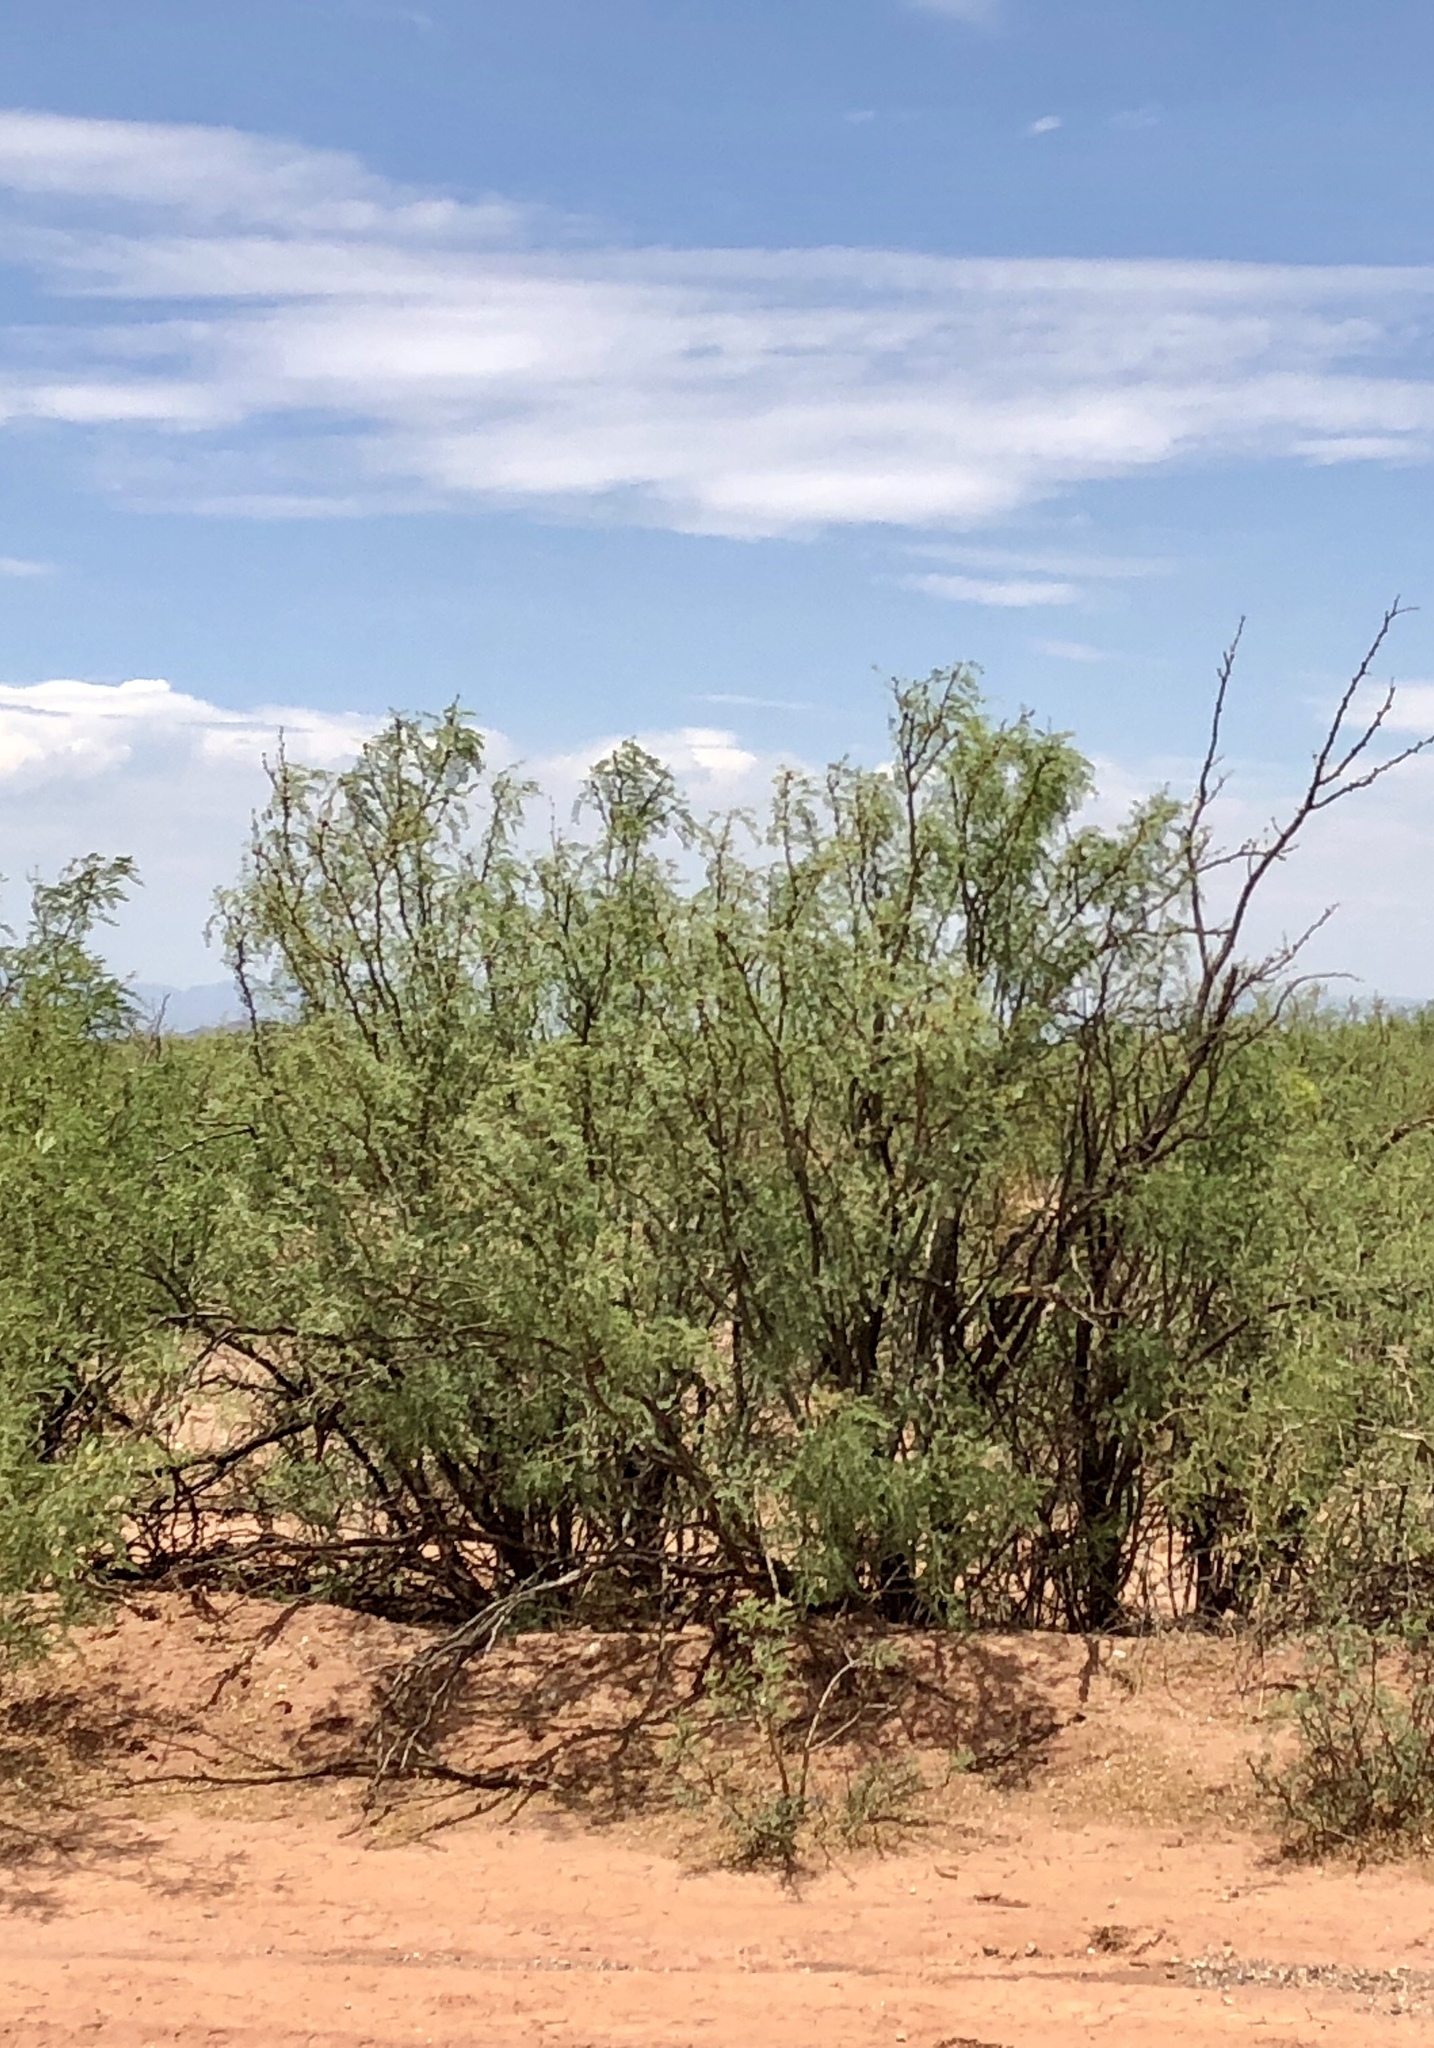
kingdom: Plantae
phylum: Tracheophyta
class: Magnoliopsida
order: Fabales
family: Fabaceae
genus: Prosopis
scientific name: Prosopis glandulosa
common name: Honey mesquite
